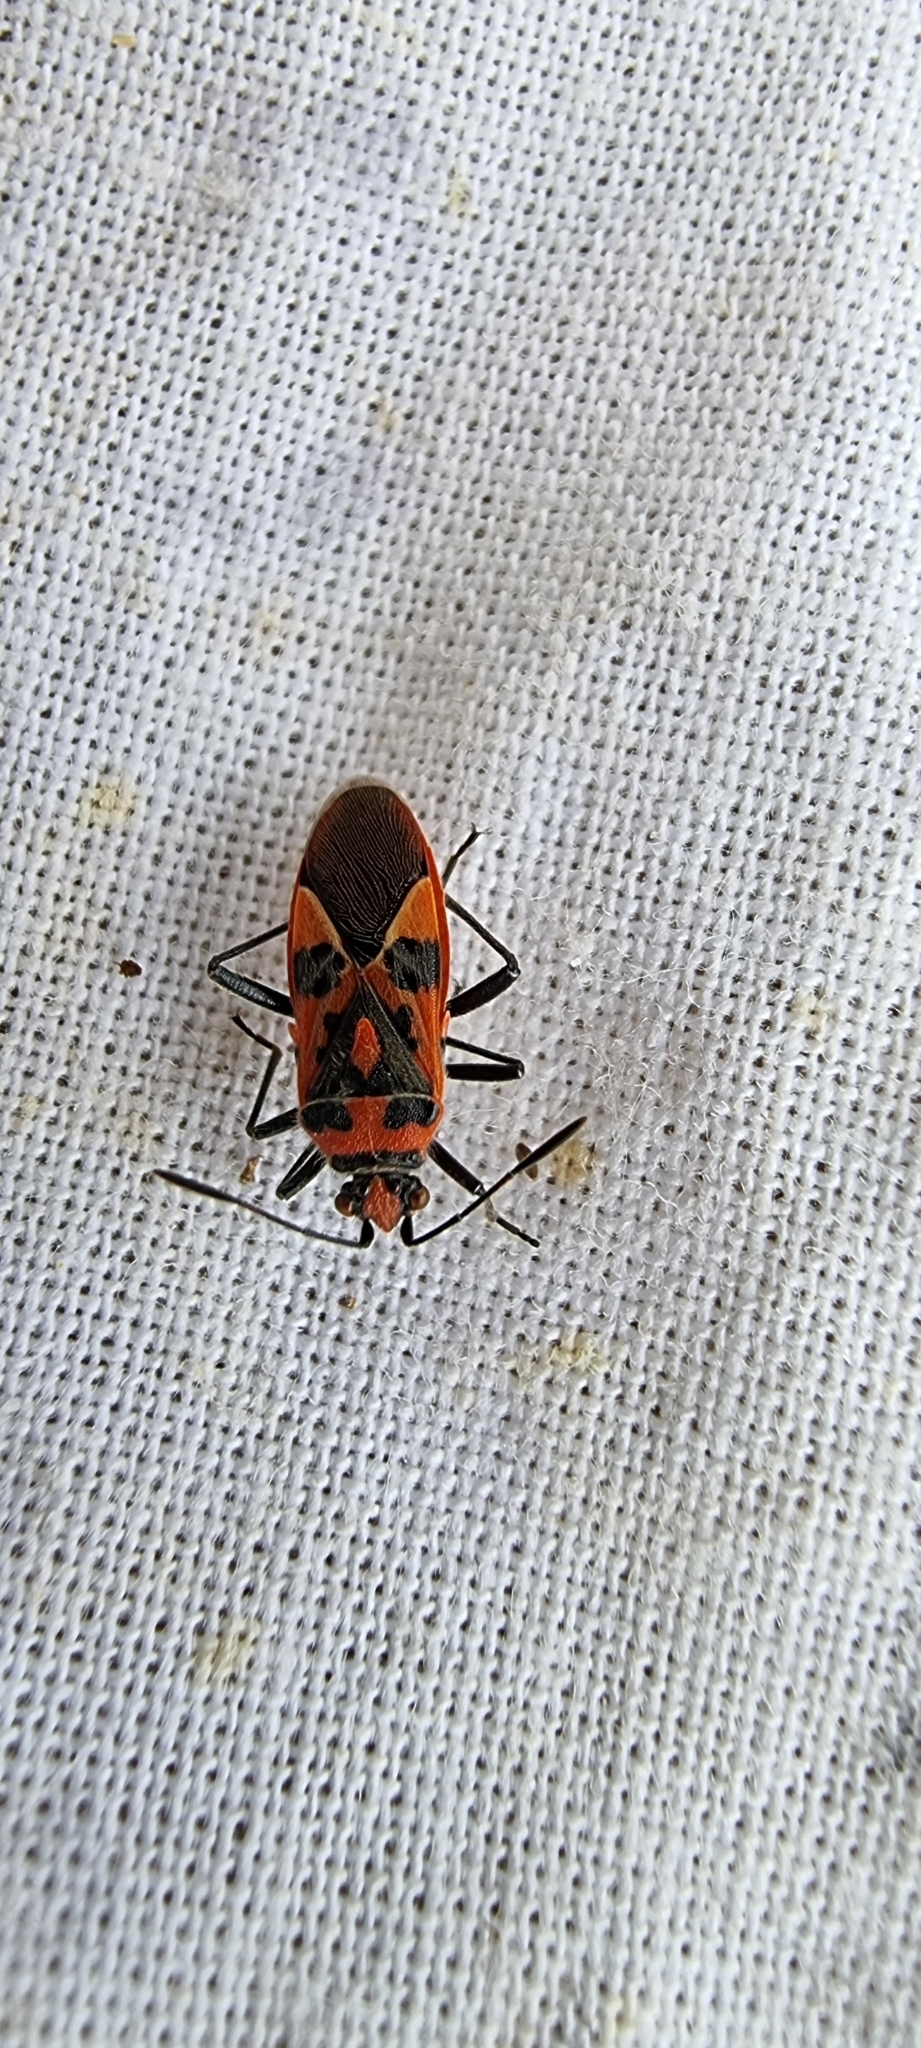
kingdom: Animalia
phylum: Arthropoda
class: Insecta
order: Hemiptera
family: Rhopalidae
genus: Corizus
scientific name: Corizus hyoscyami
